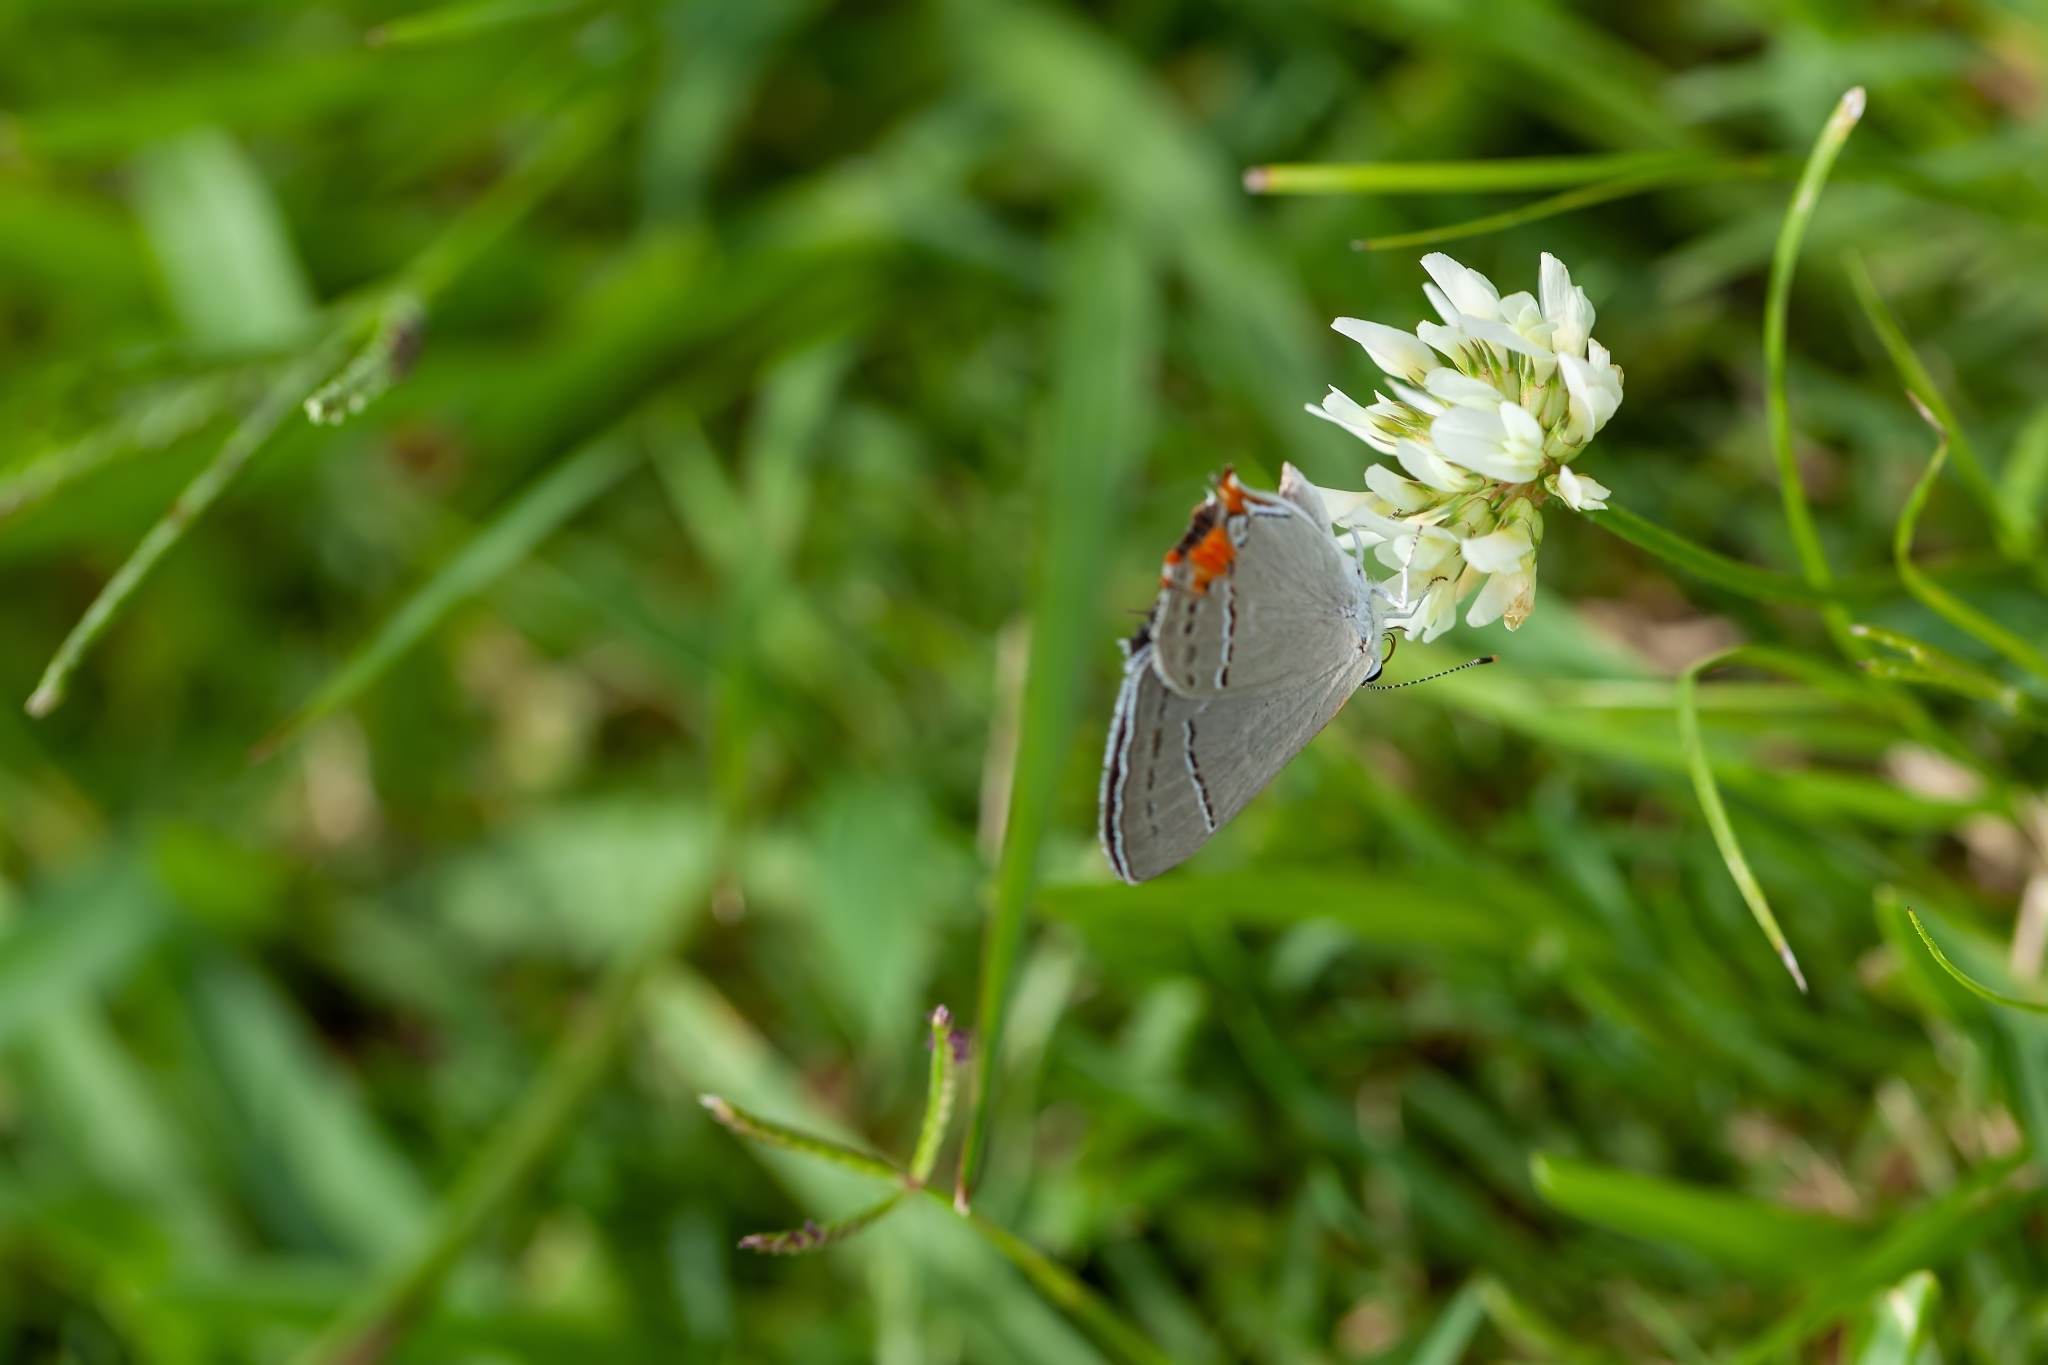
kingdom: Animalia
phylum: Arthropoda
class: Insecta
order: Lepidoptera
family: Lycaenidae
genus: Strymon
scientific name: Strymon melinus
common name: Gray hairstreak
